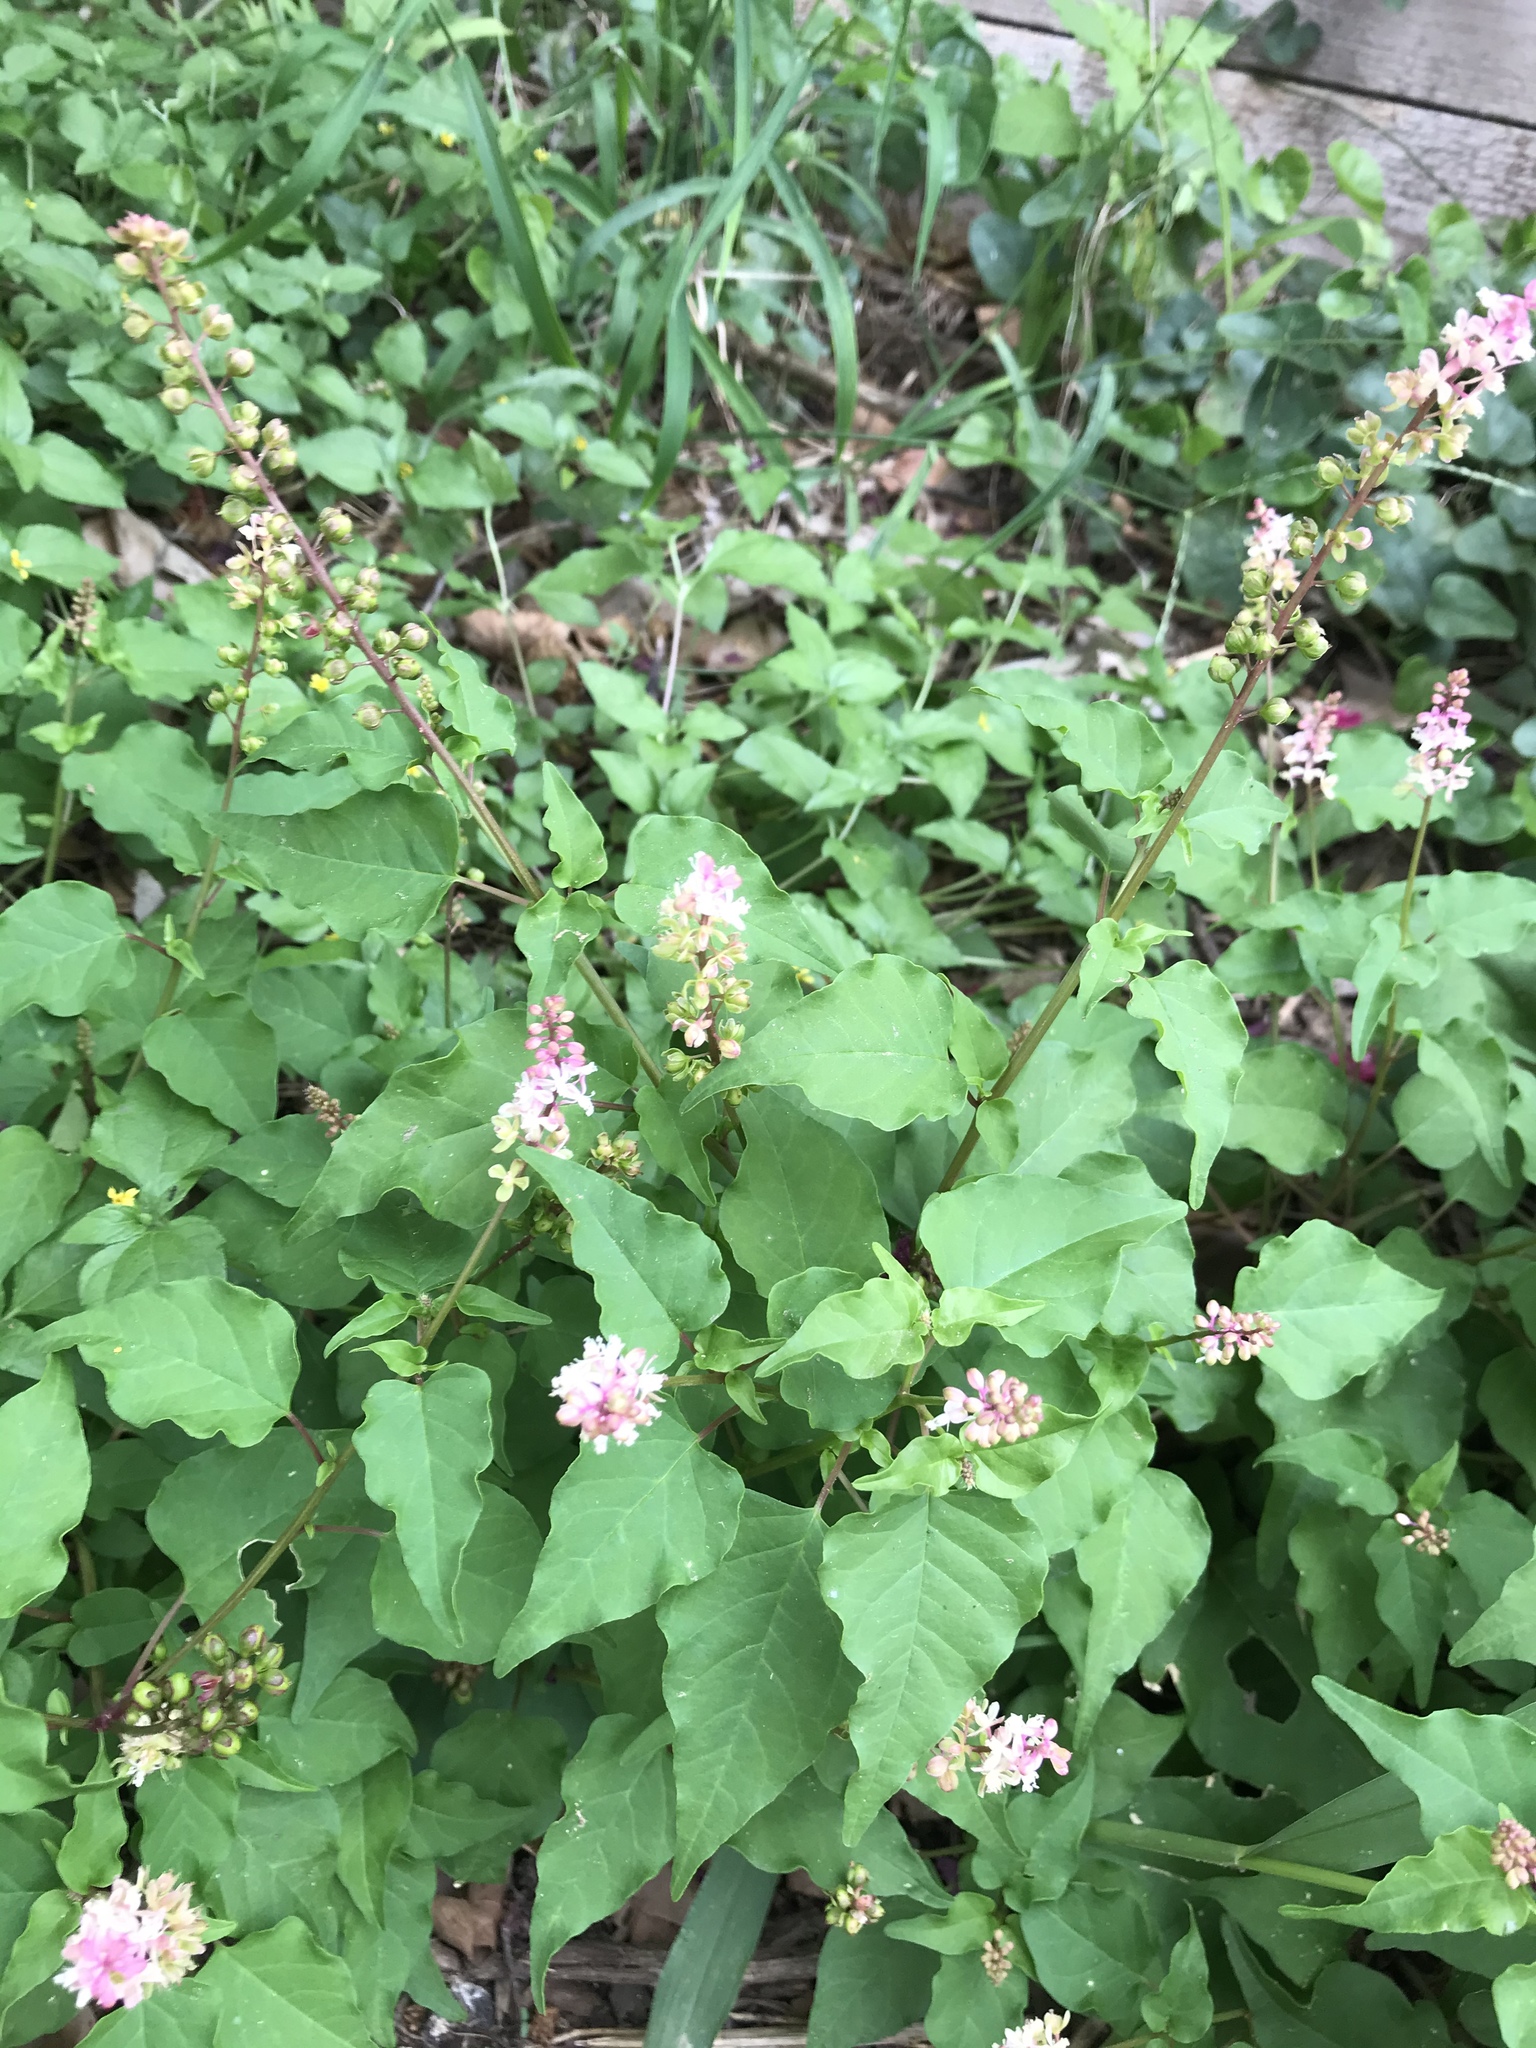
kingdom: Plantae
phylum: Tracheophyta
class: Magnoliopsida
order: Caryophyllales
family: Phytolaccaceae
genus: Rivina
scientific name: Rivina humilis
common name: Rougeplant
